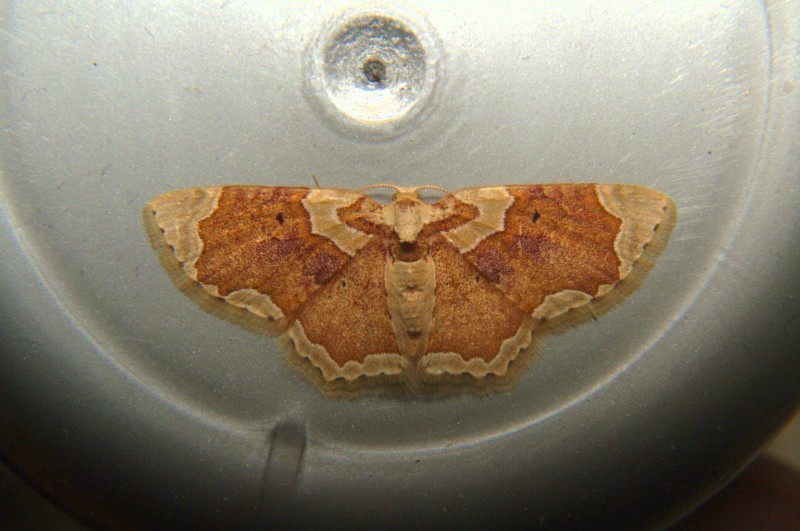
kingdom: Animalia
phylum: Arthropoda
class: Insecta
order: Lepidoptera
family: Geometridae
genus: Palpoctenidia
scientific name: Palpoctenidia phoenicosoma
